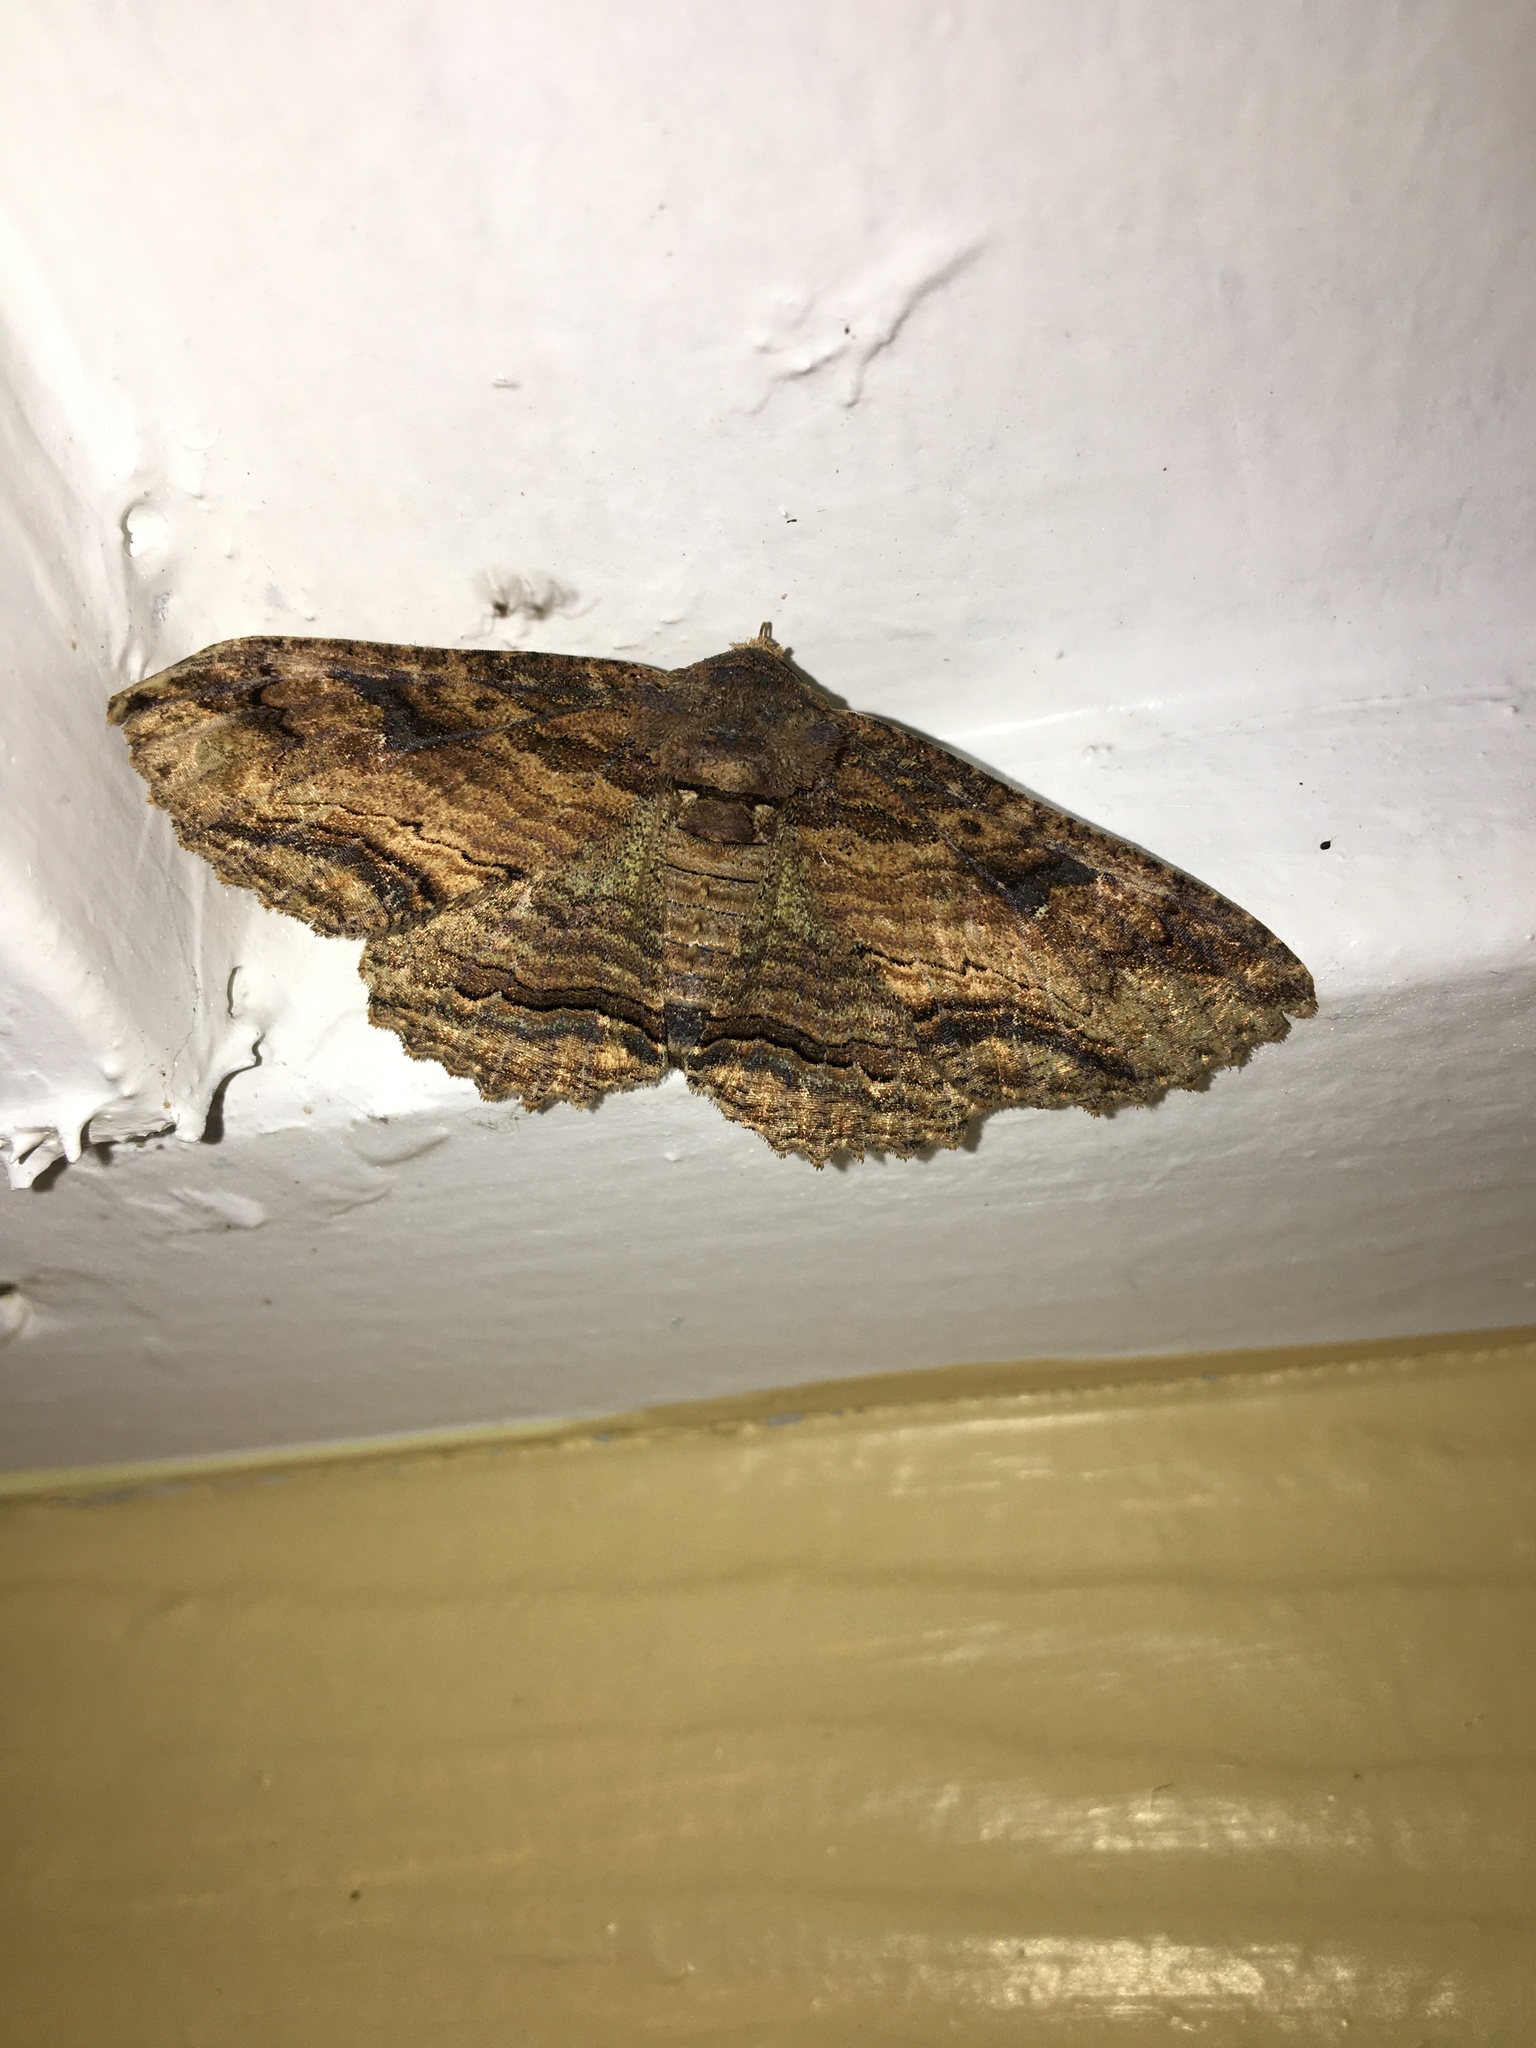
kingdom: Animalia
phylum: Arthropoda
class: Insecta
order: Lepidoptera
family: Erebidae
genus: Zale
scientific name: Zale lunata
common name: Lunate zale moth
